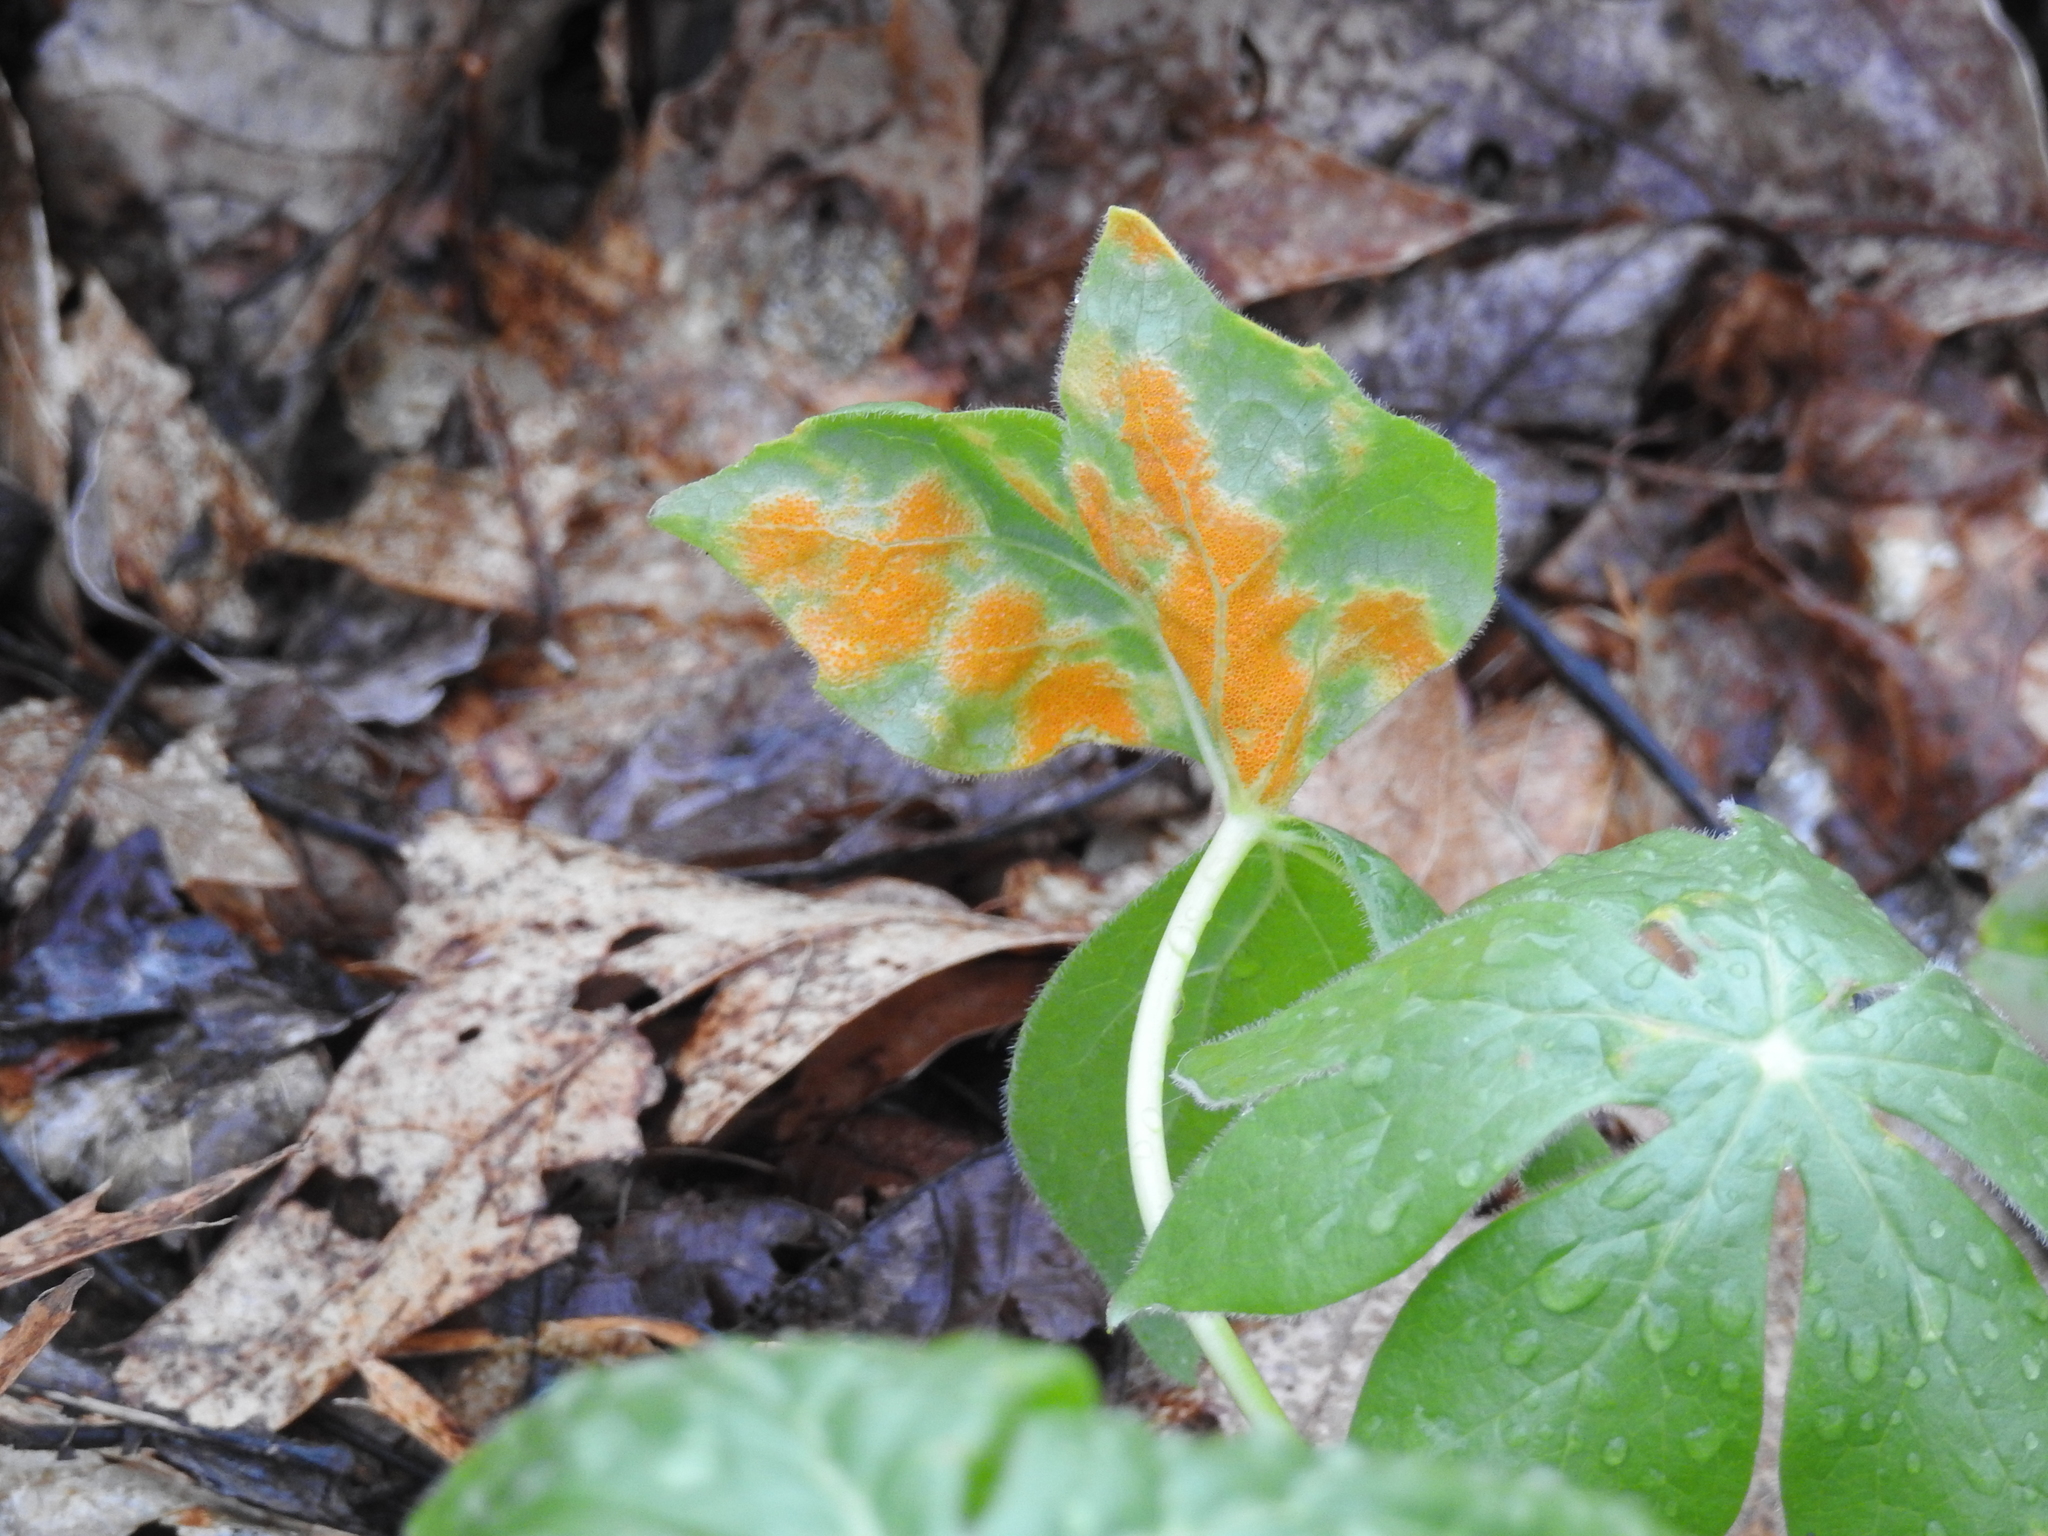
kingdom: Fungi
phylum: Basidiomycota
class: Pucciniomycetes
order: Pucciniales
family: Pucciniaceae
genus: Puccinia
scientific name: Puccinia podophylli
